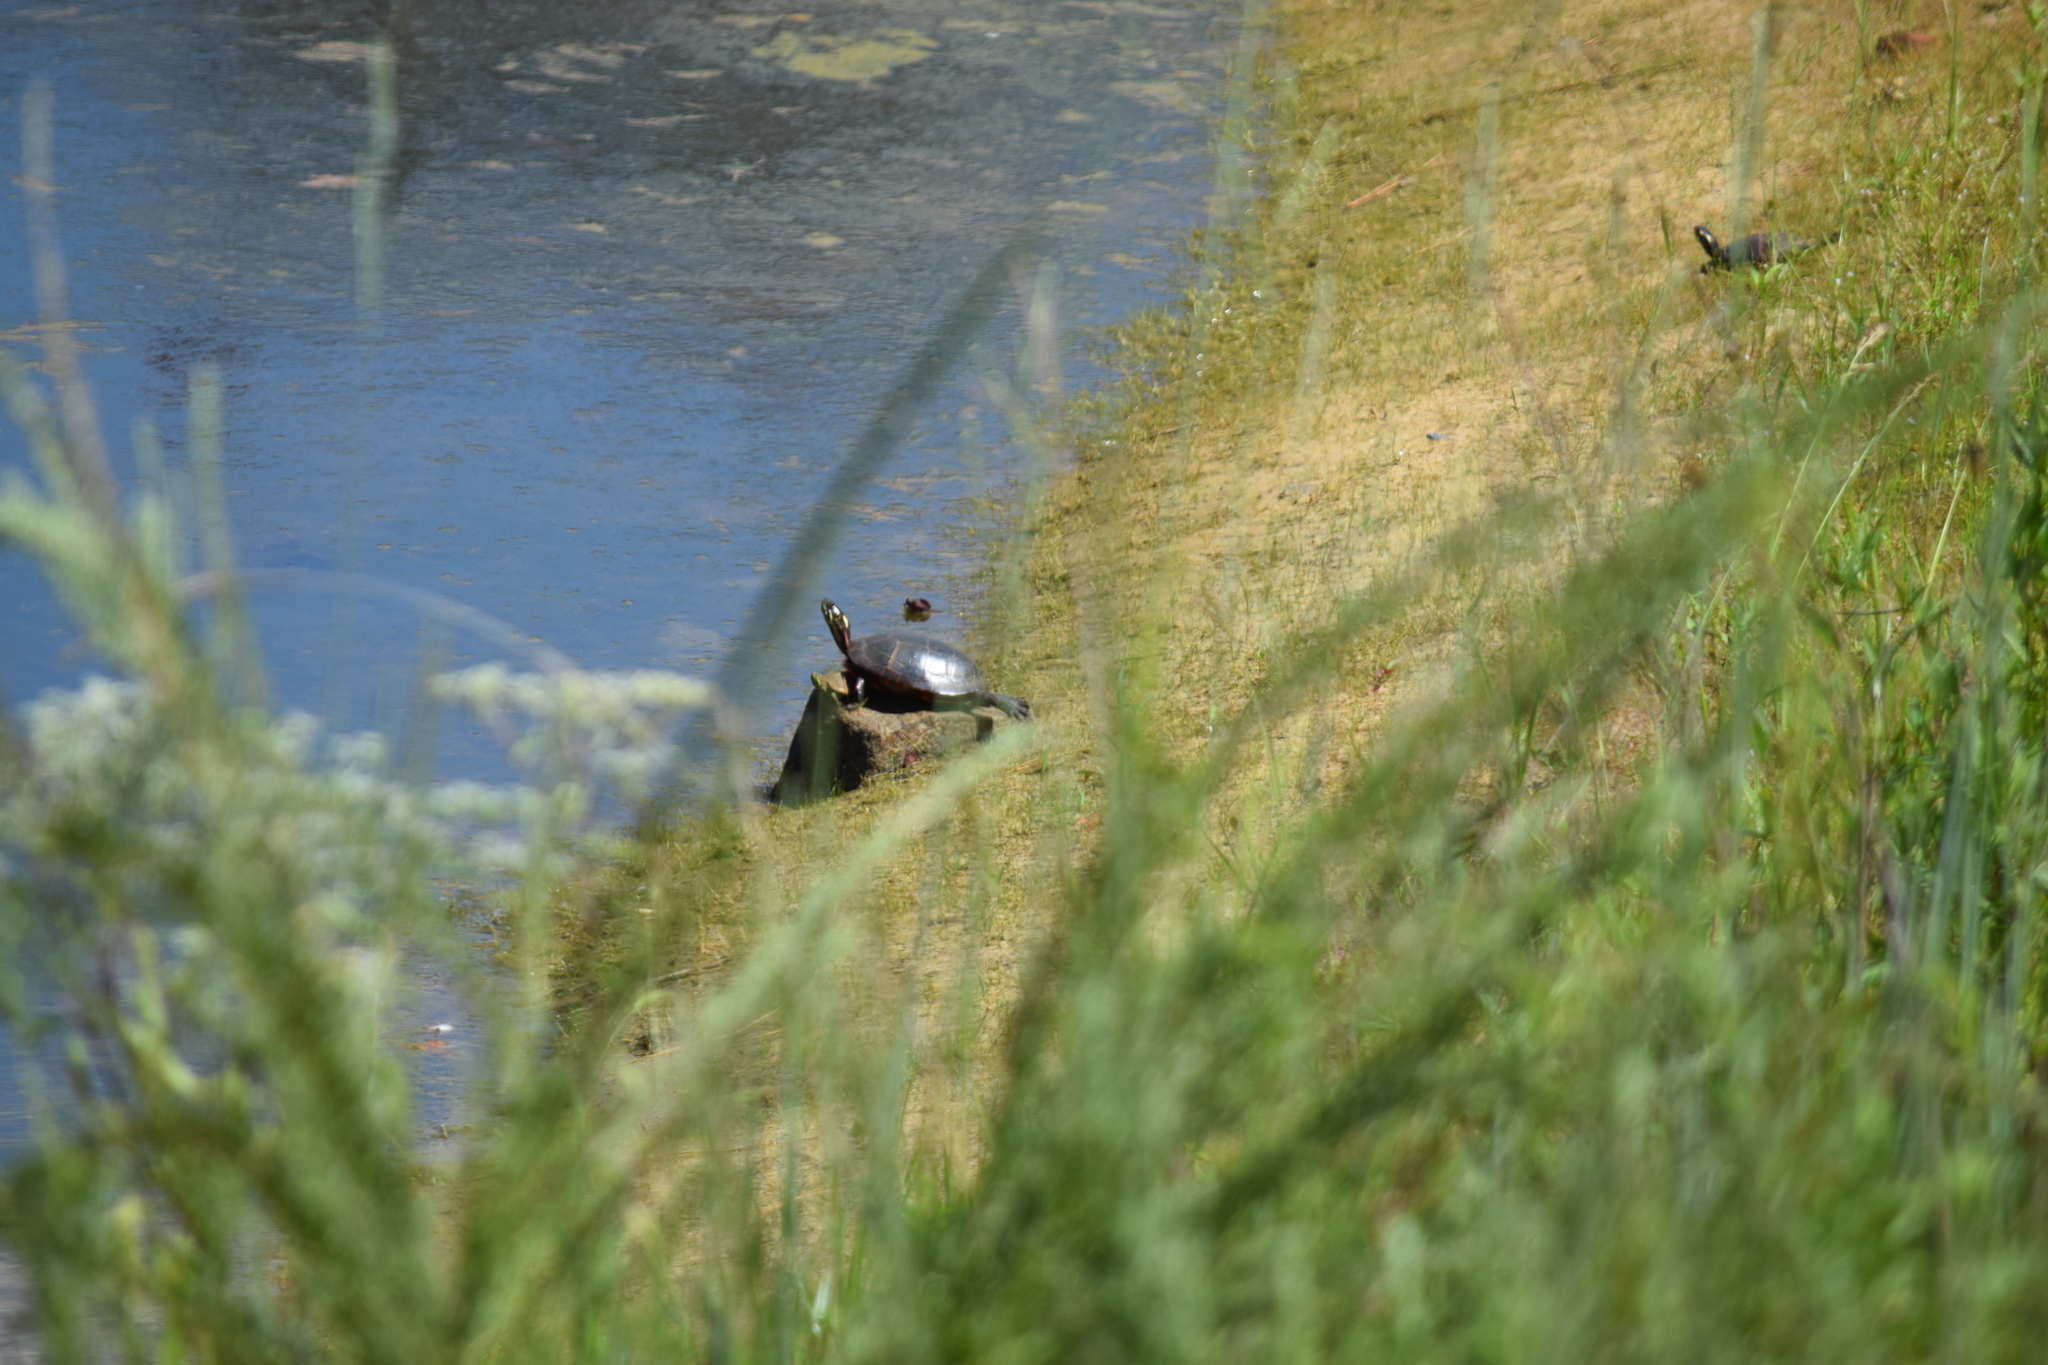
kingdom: Animalia
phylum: Chordata
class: Testudines
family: Emydidae
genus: Chrysemys
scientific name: Chrysemys picta
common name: Painted turtle
